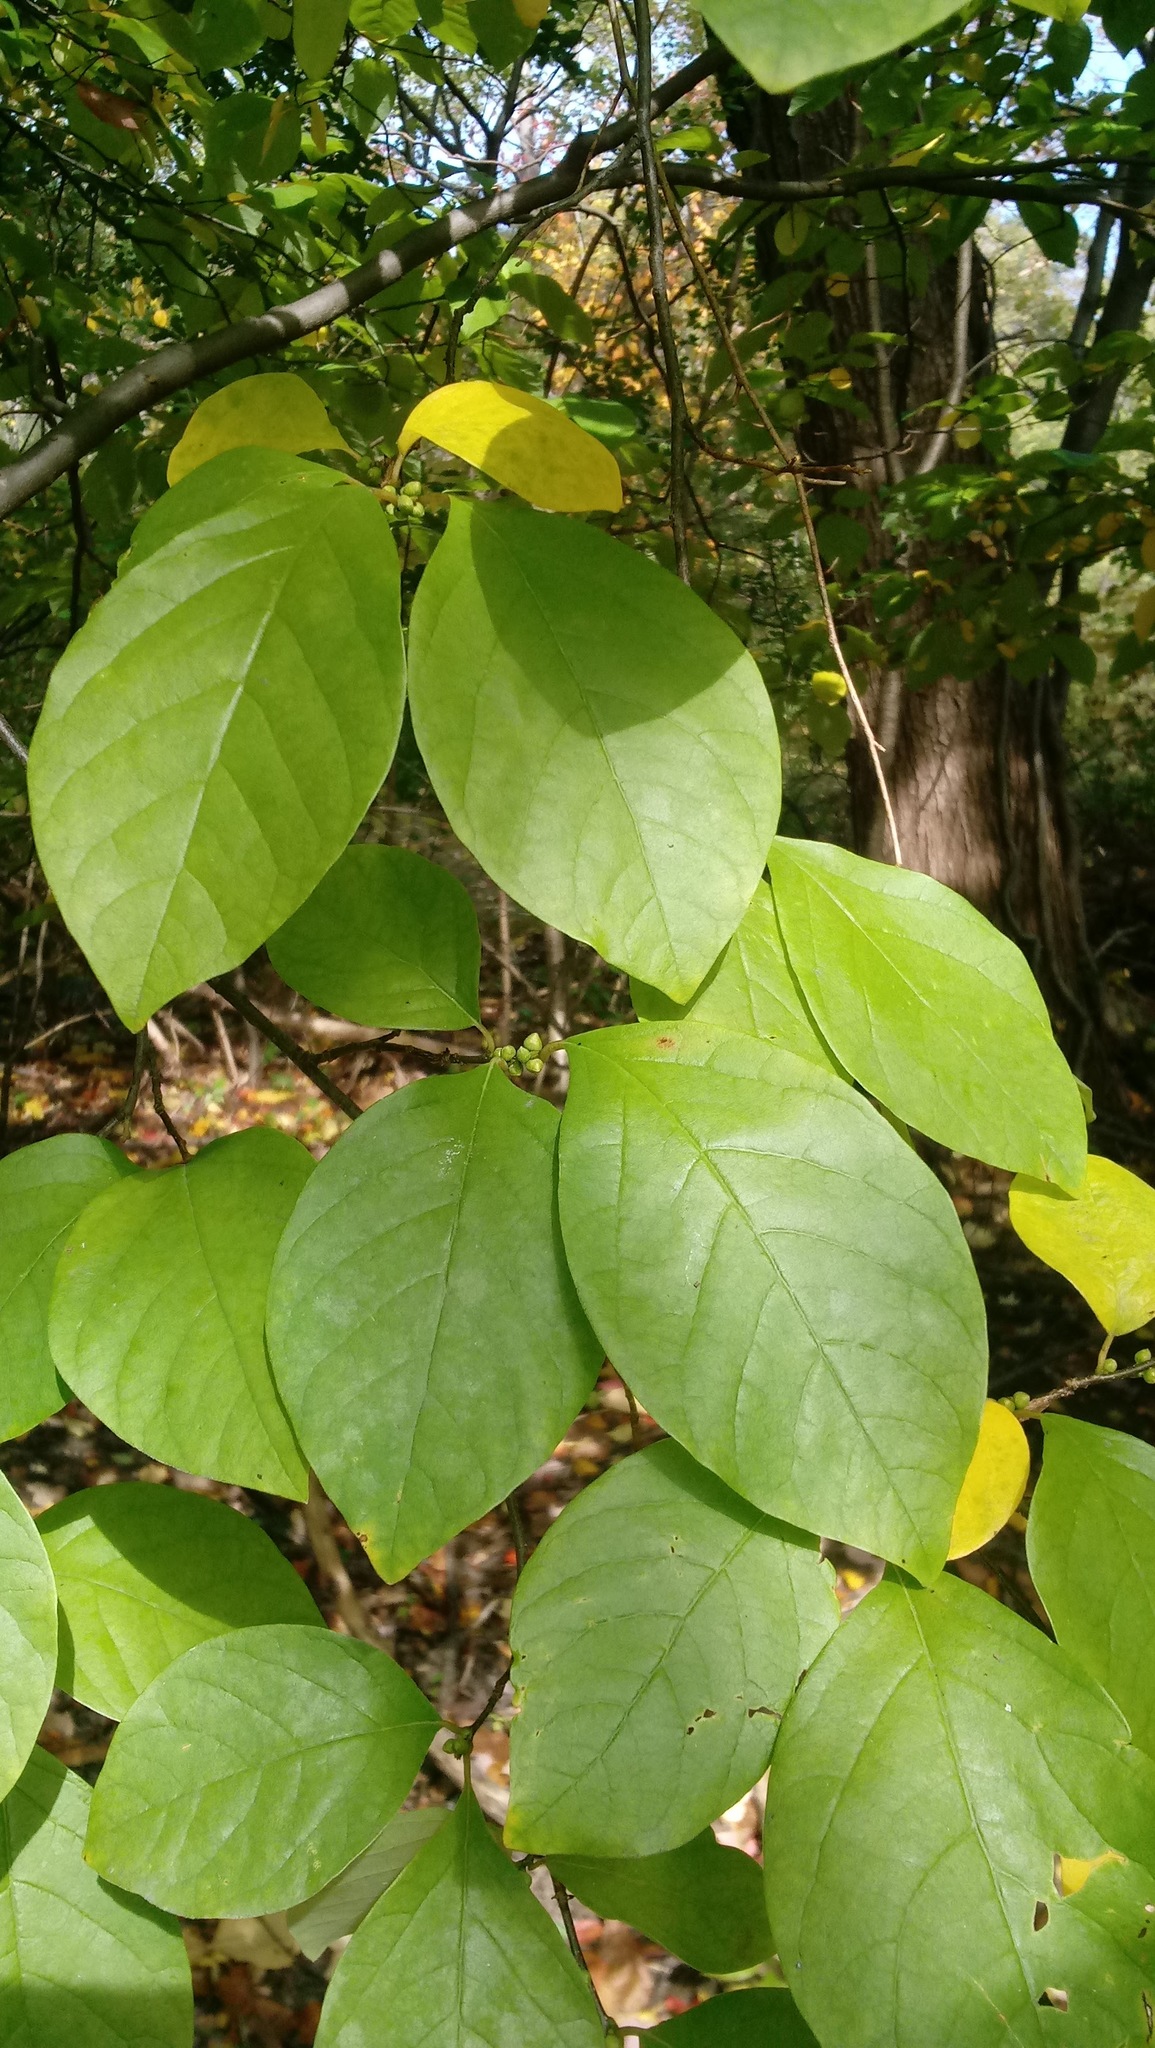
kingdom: Plantae
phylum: Tracheophyta
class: Magnoliopsida
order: Laurales
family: Lauraceae
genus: Lindera
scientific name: Lindera benzoin
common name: Spicebush
